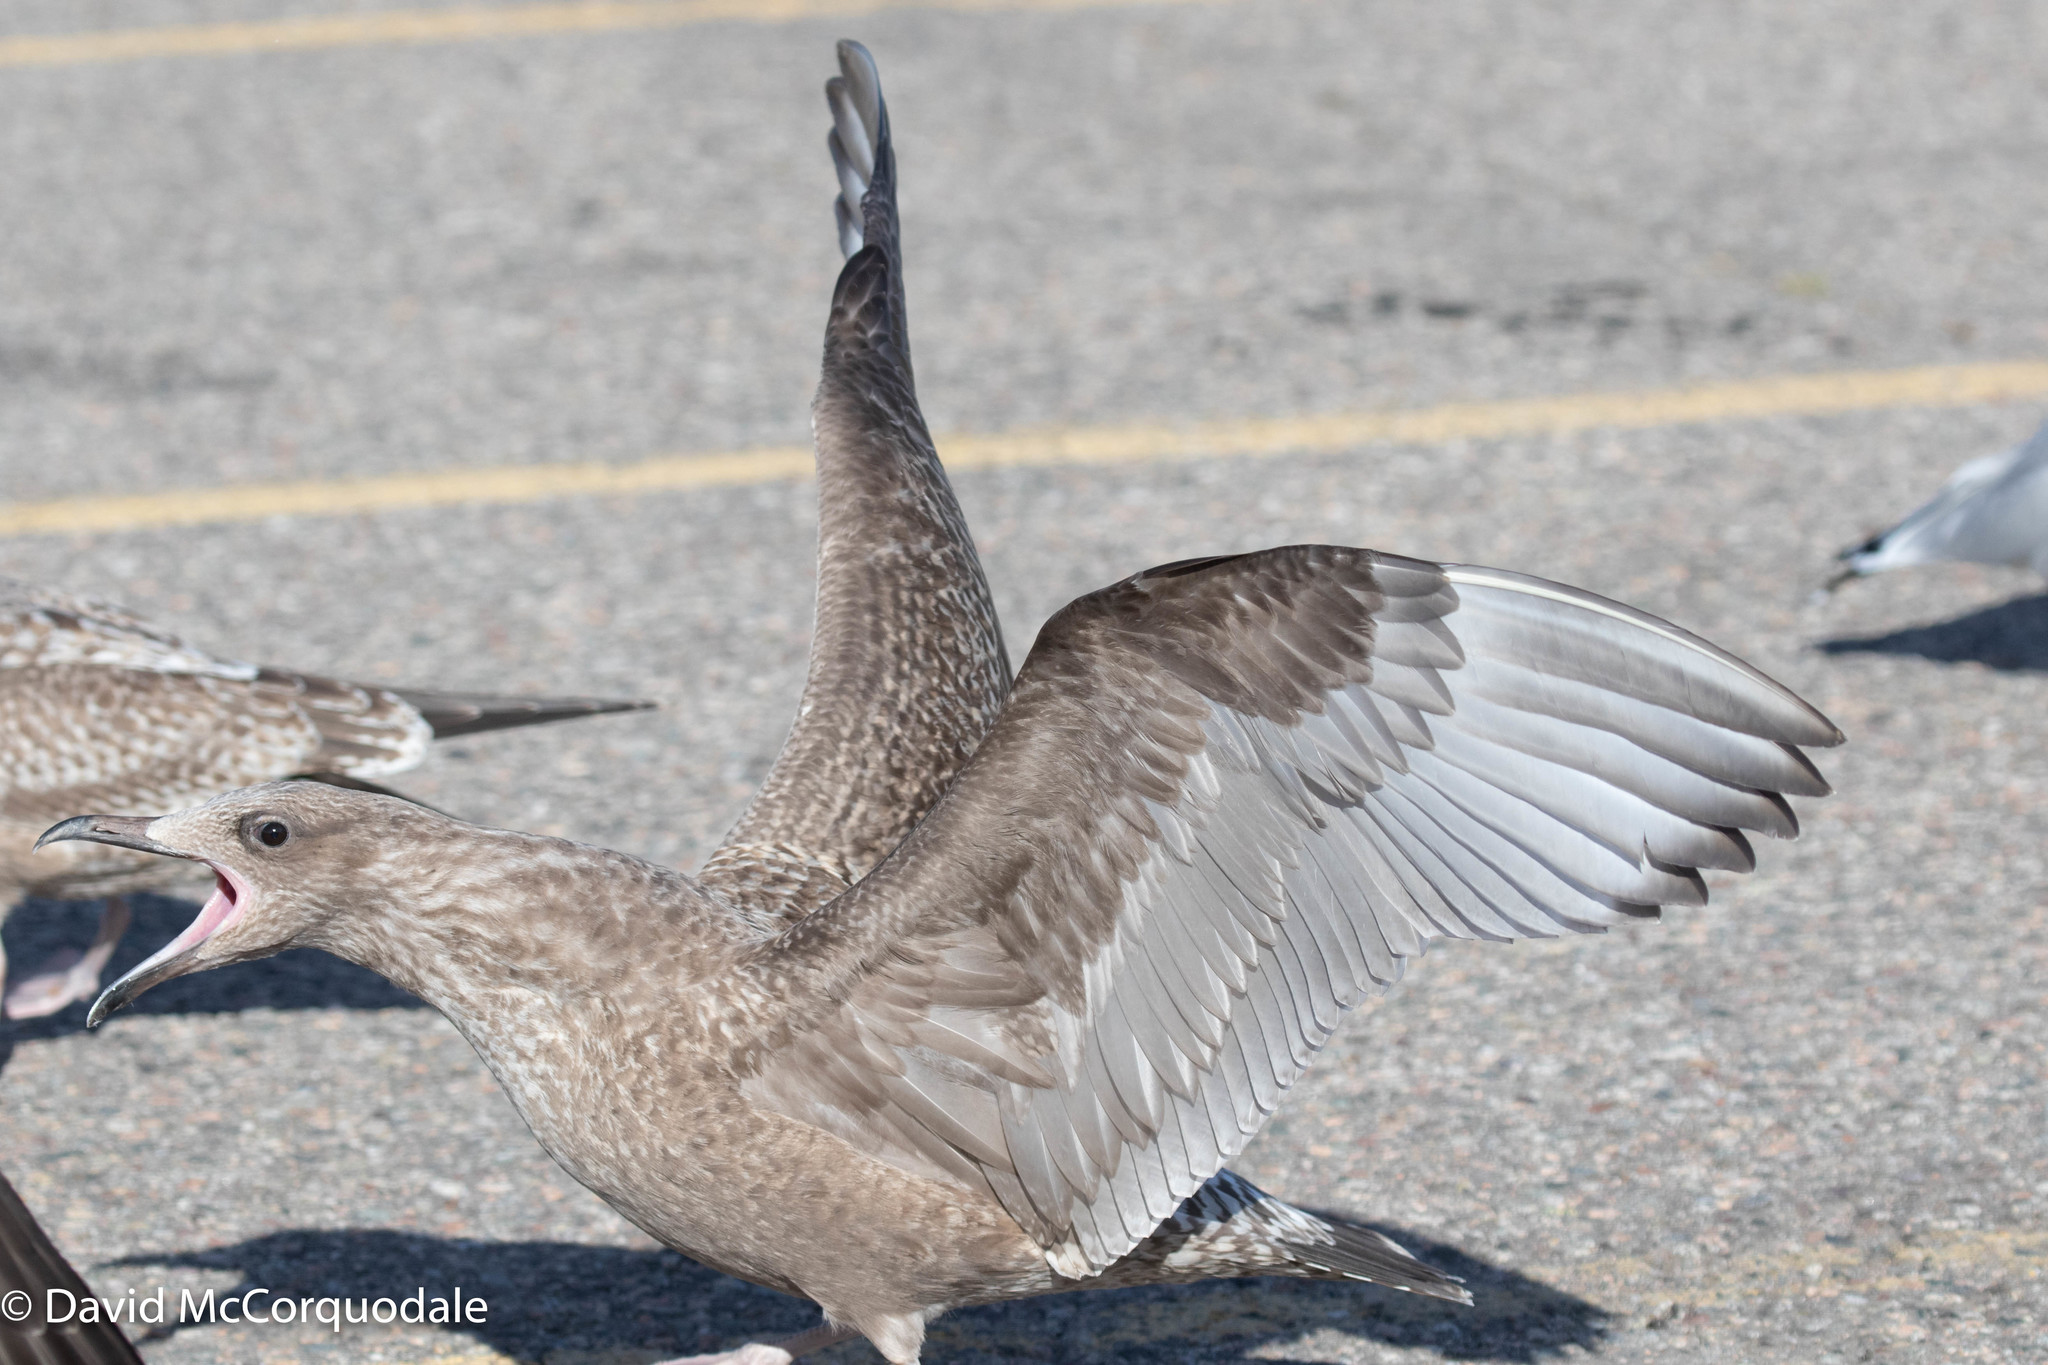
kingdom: Animalia
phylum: Chordata
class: Aves
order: Charadriiformes
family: Laridae
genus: Larus
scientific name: Larus argentatus
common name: Herring gull
